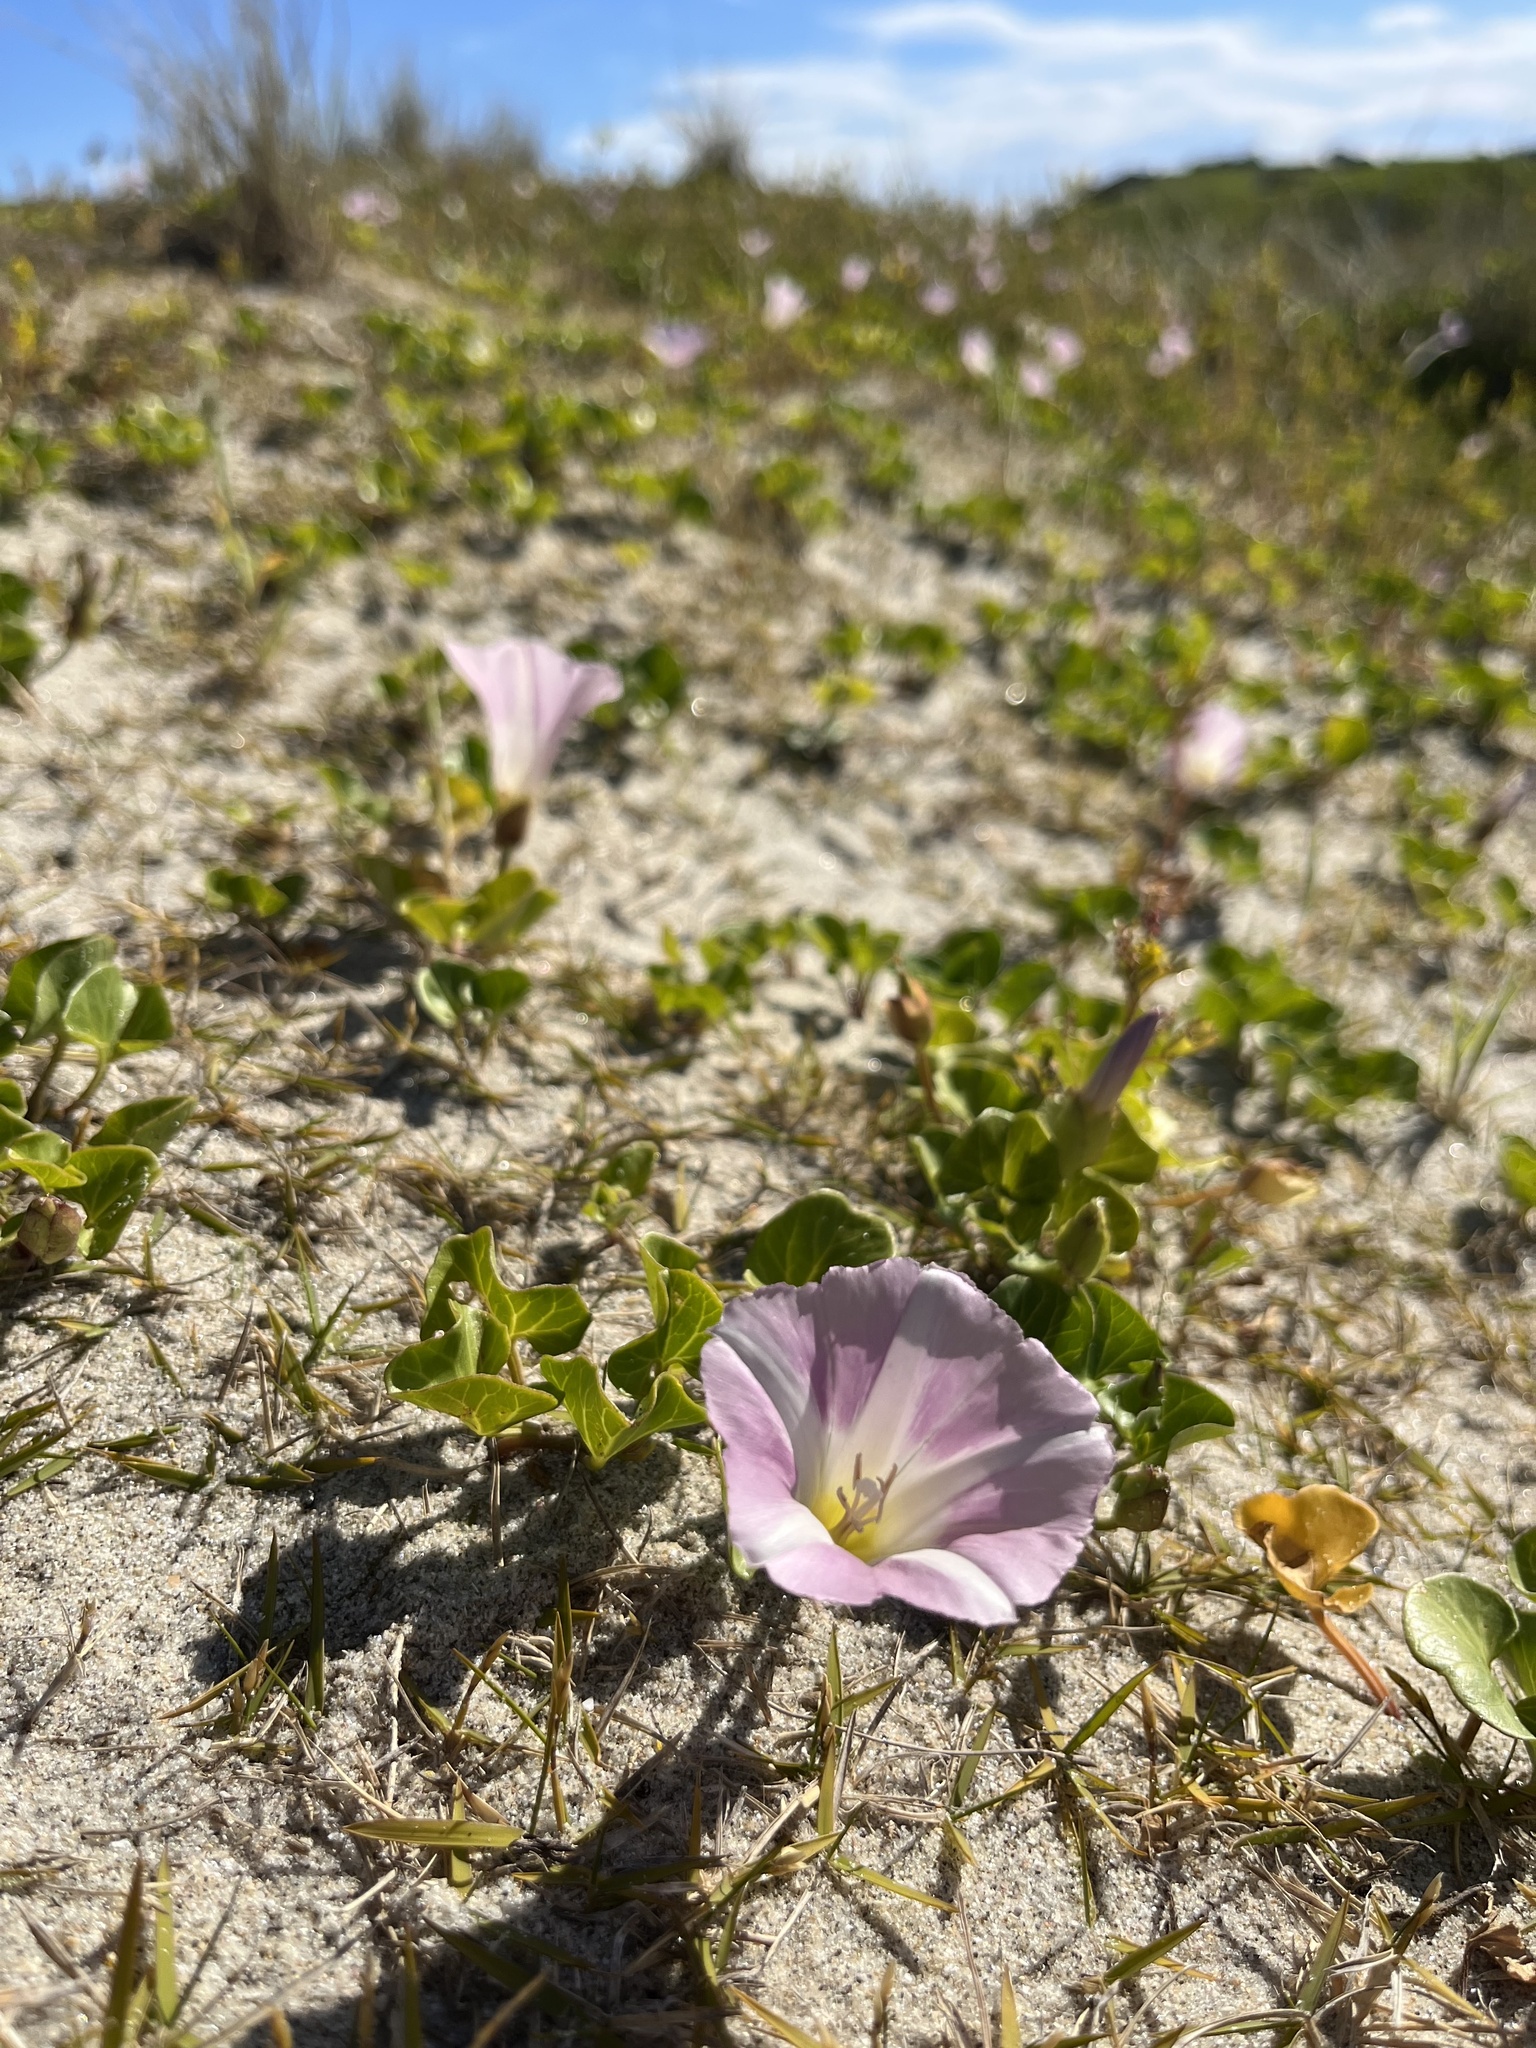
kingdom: Plantae
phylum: Tracheophyta
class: Magnoliopsida
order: Solanales
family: Convolvulaceae
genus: Calystegia
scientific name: Calystegia soldanella
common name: Sea bindweed
